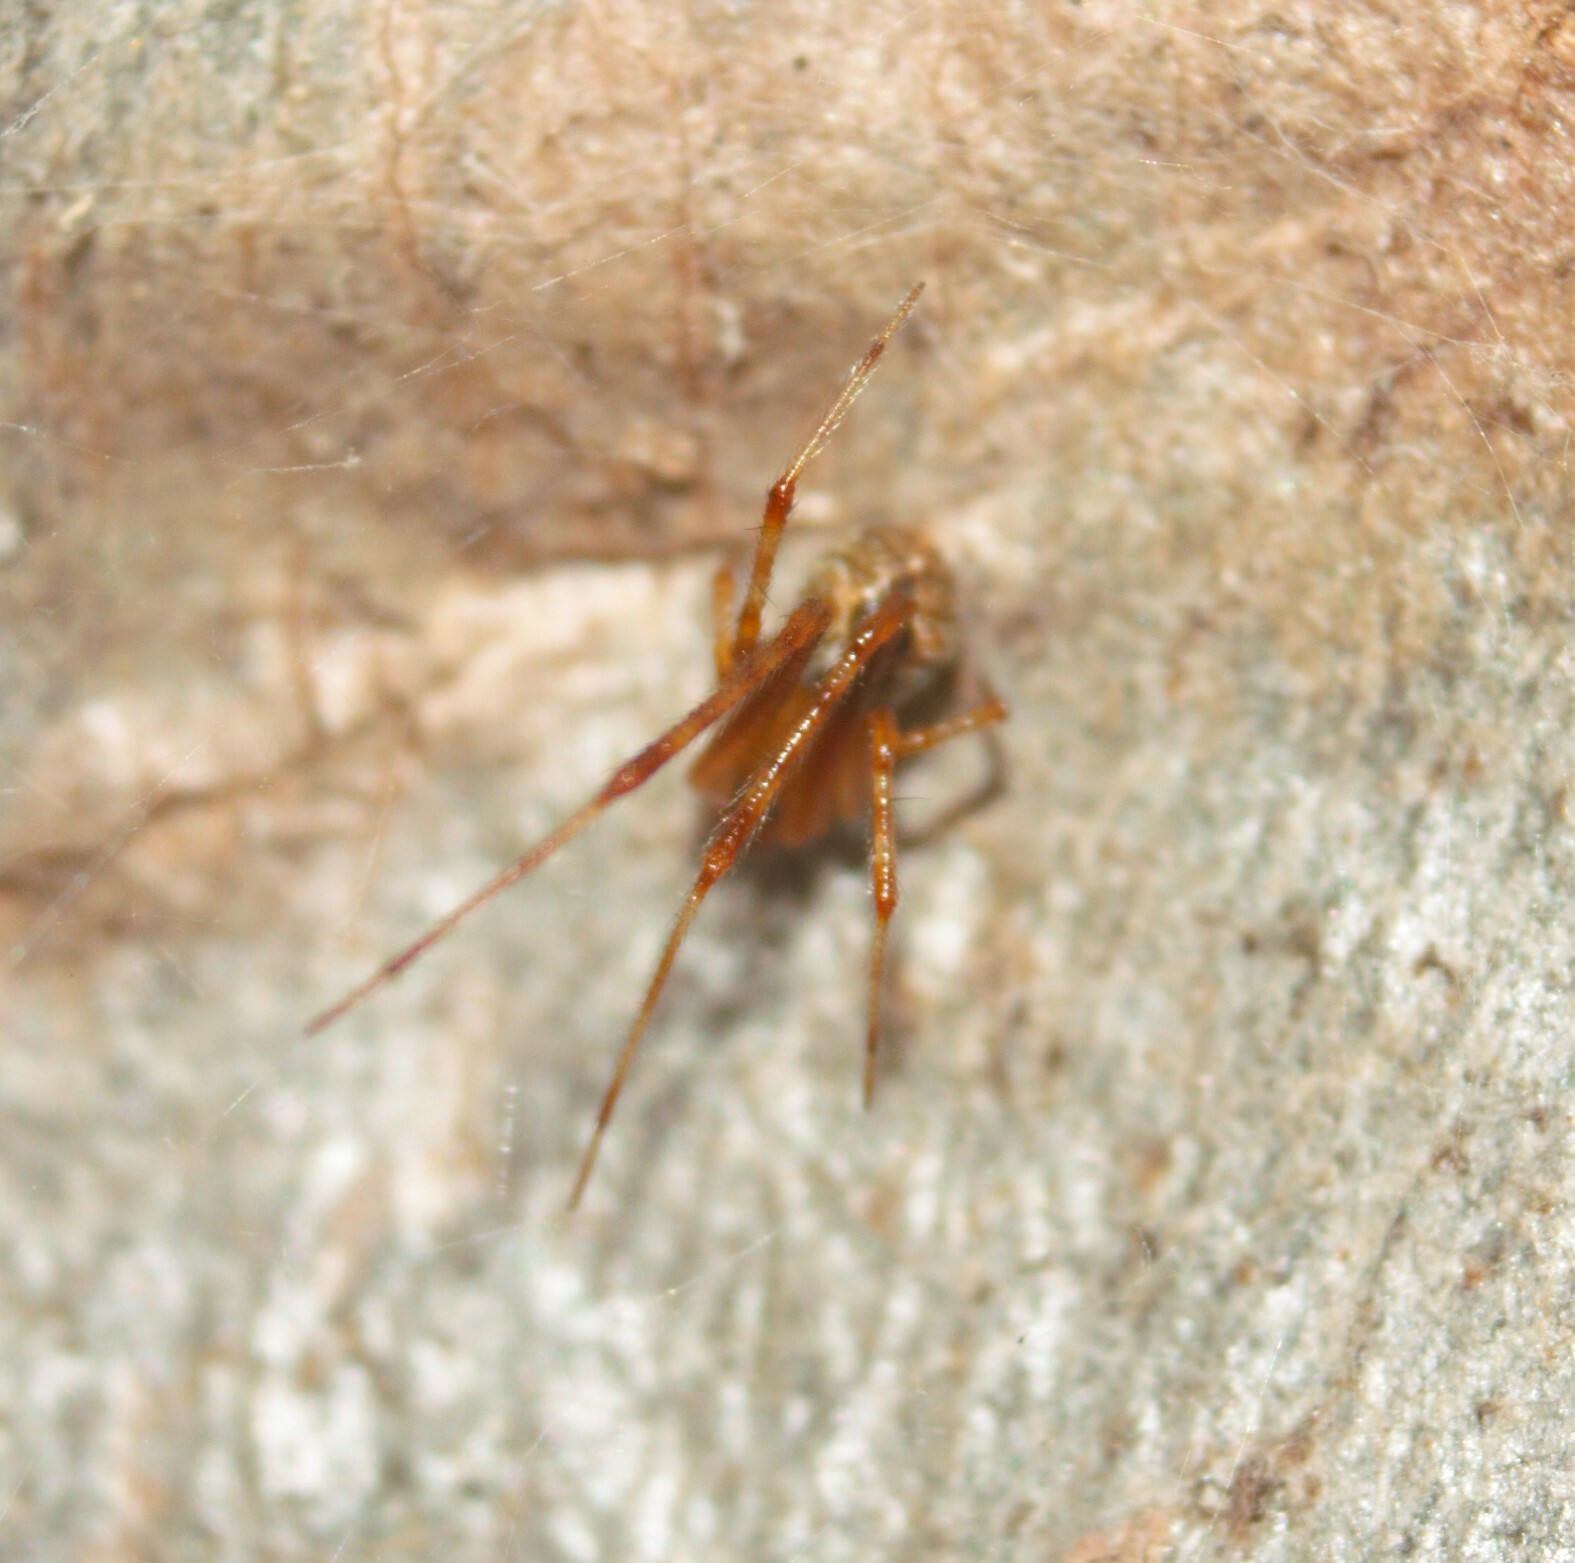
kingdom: Animalia
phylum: Arthropoda
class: Arachnida
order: Araneae
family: Theridiidae
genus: Cryptachaea
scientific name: Cryptachaea veruculata
